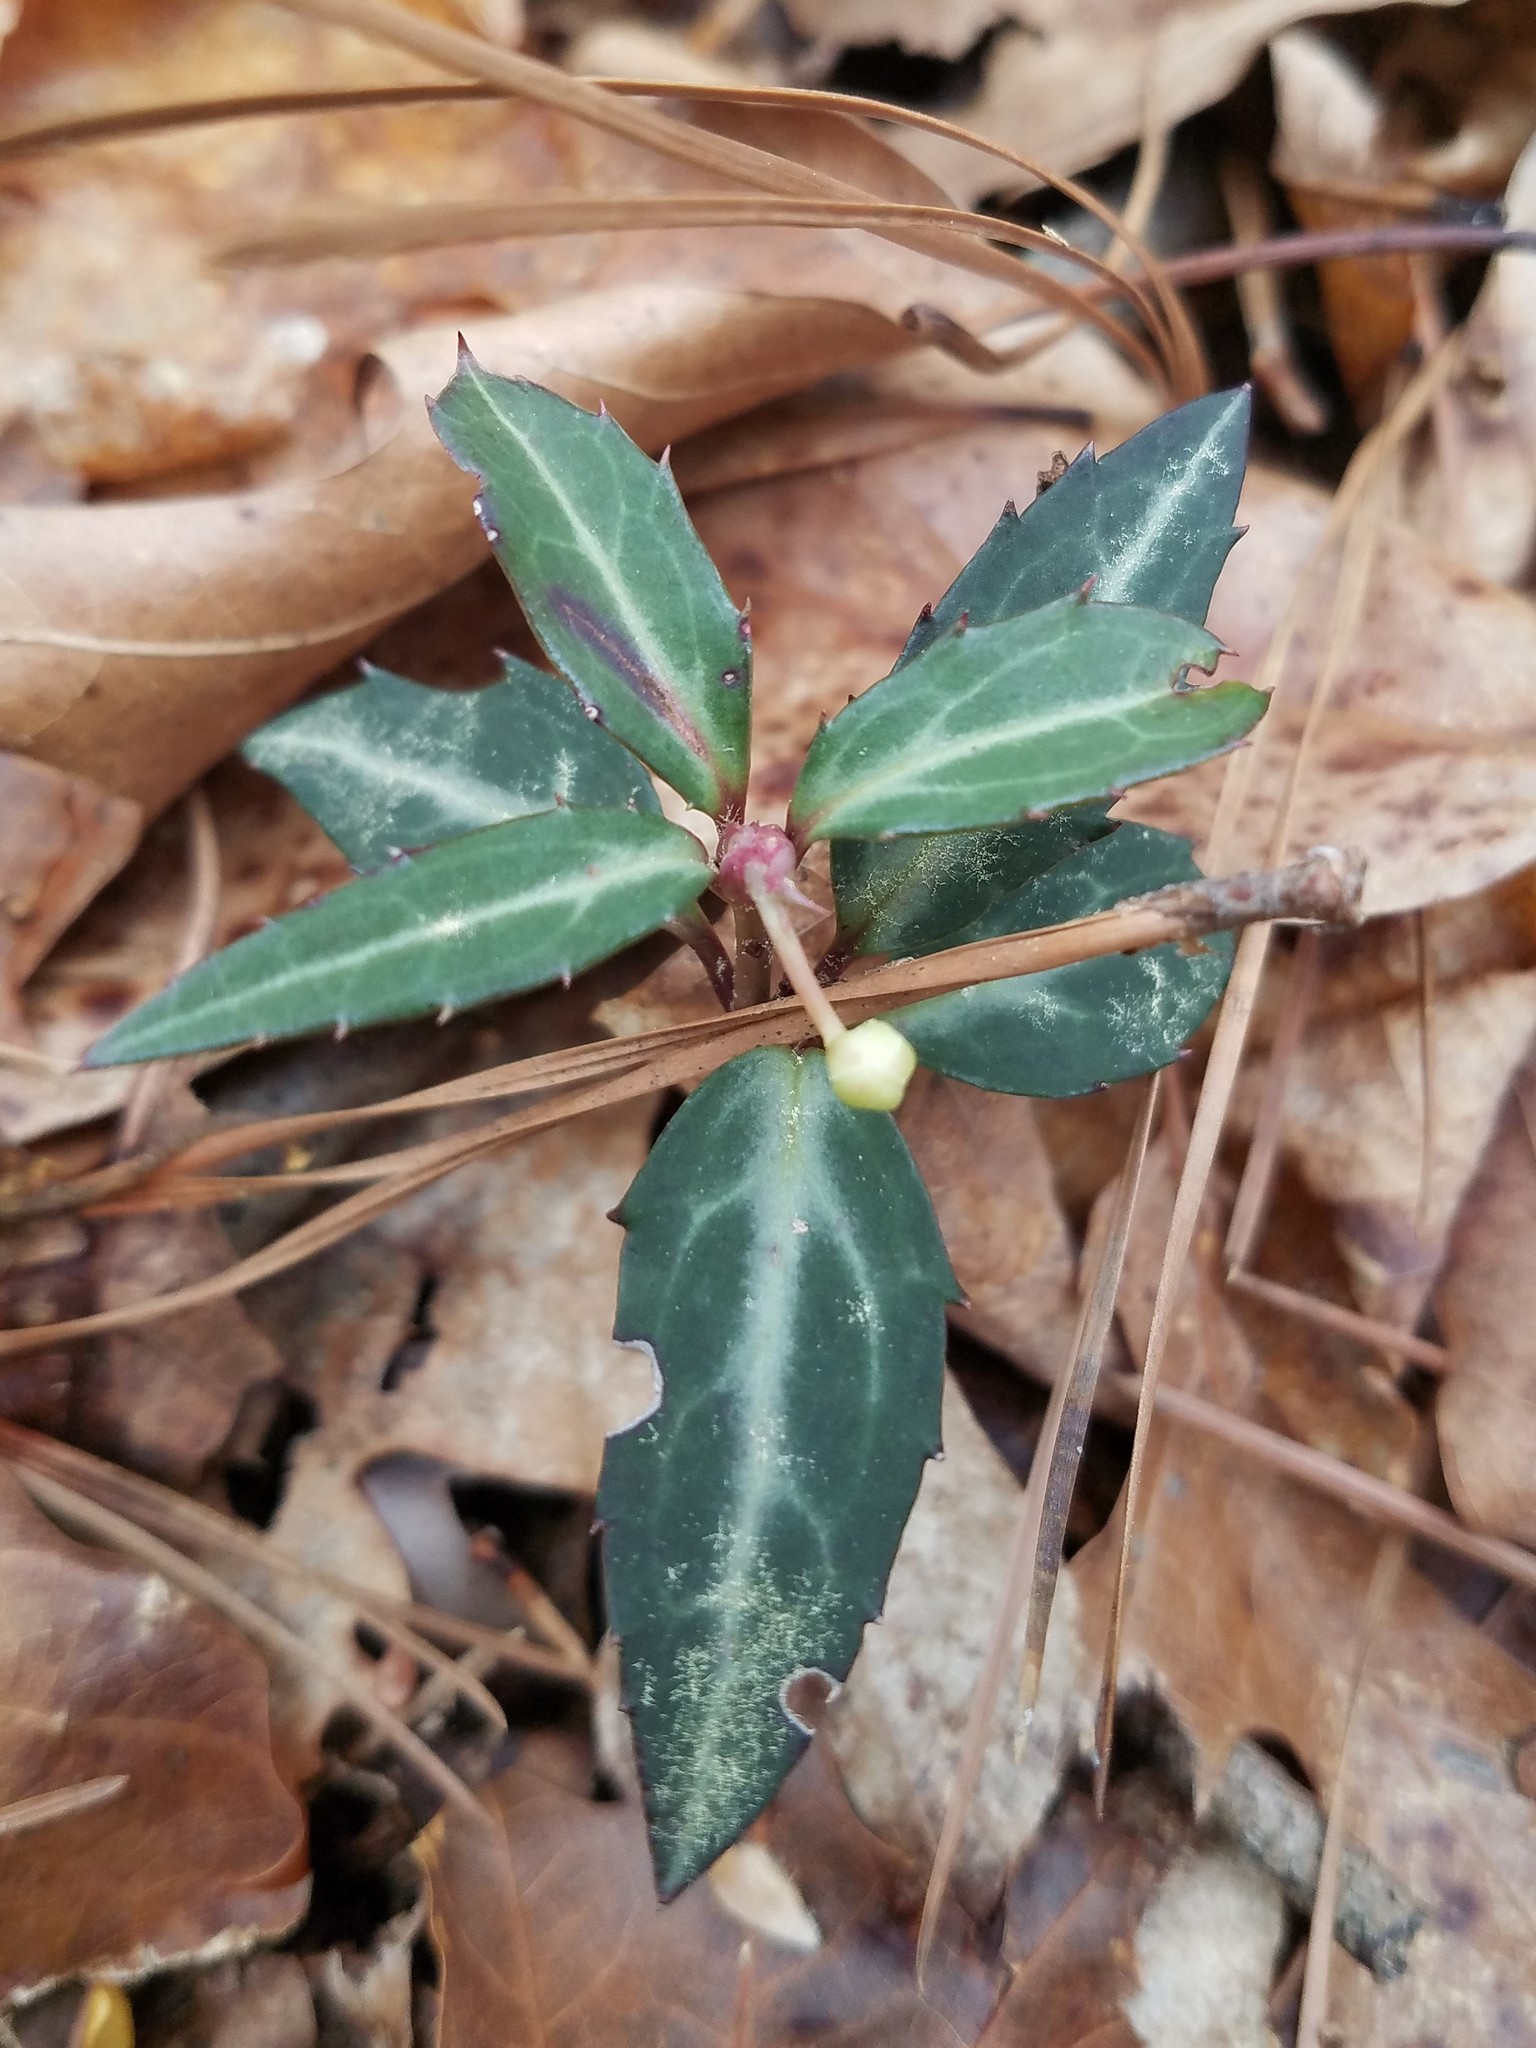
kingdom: Plantae
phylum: Tracheophyta
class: Magnoliopsida
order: Ericales
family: Ericaceae
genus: Chimaphila
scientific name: Chimaphila maculata
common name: Spotted pipsissewa
